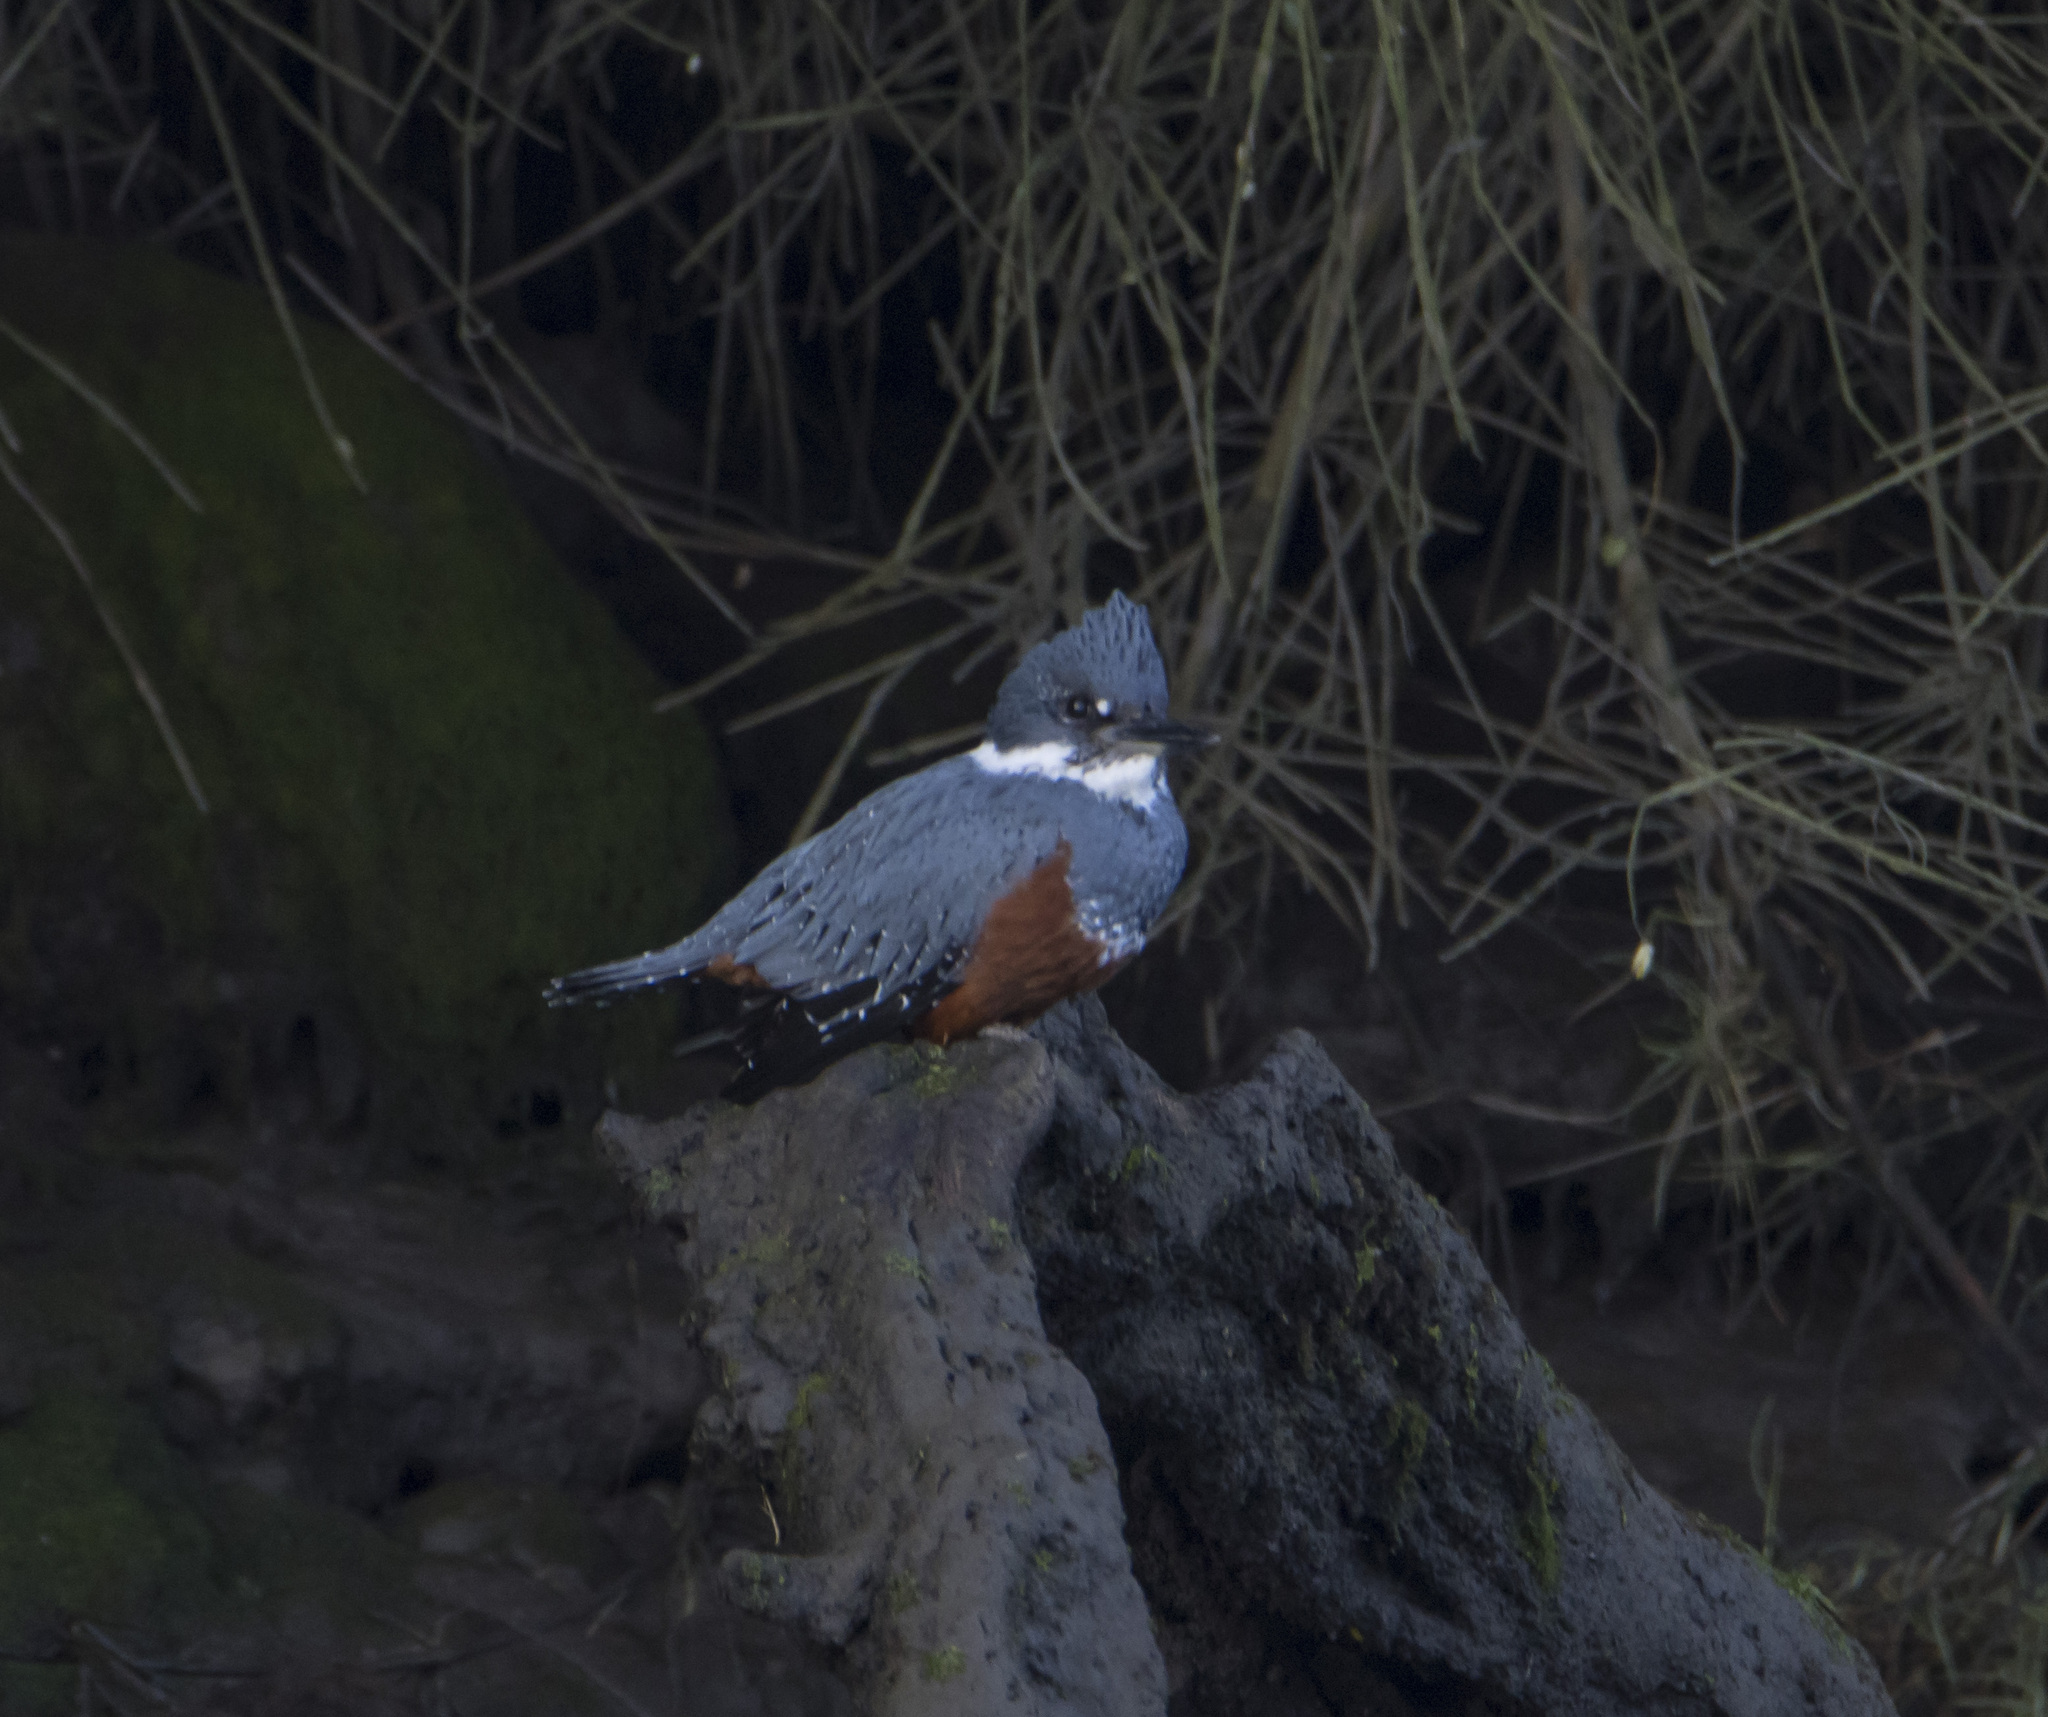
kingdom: Animalia
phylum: Chordata
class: Aves
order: Coraciiformes
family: Alcedinidae
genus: Megaceryle
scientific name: Megaceryle torquata
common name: Ringed kingfisher
